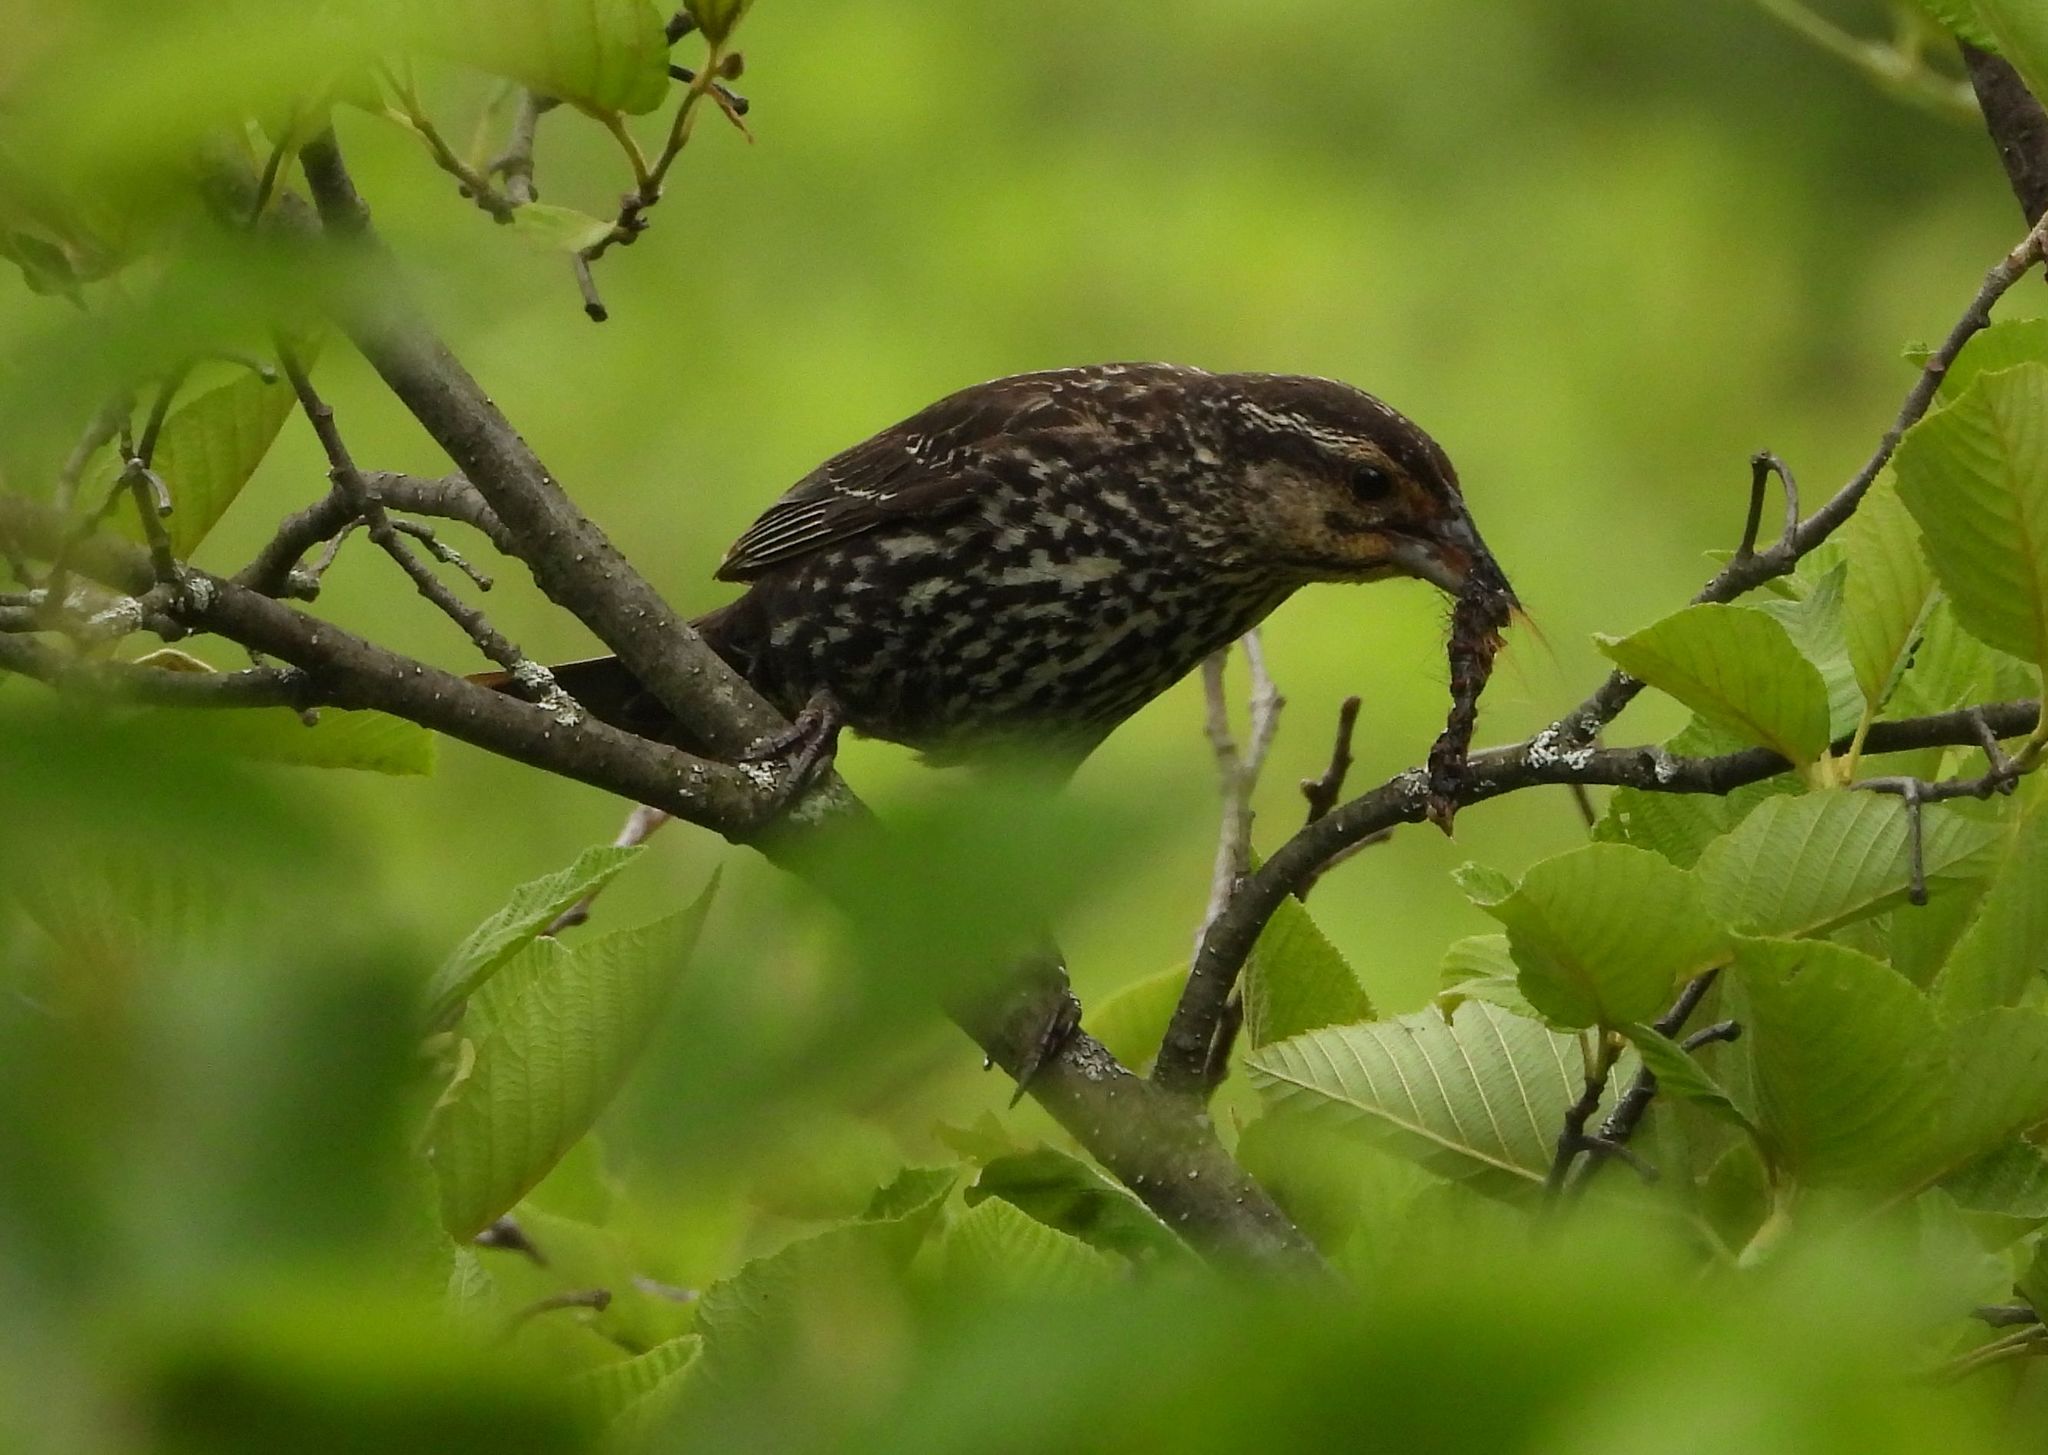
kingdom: Animalia
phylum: Chordata
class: Aves
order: Passeriformes
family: Icteridae
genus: Agelaius
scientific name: Agelaius phoeniceus
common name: Red-winged blackbird
